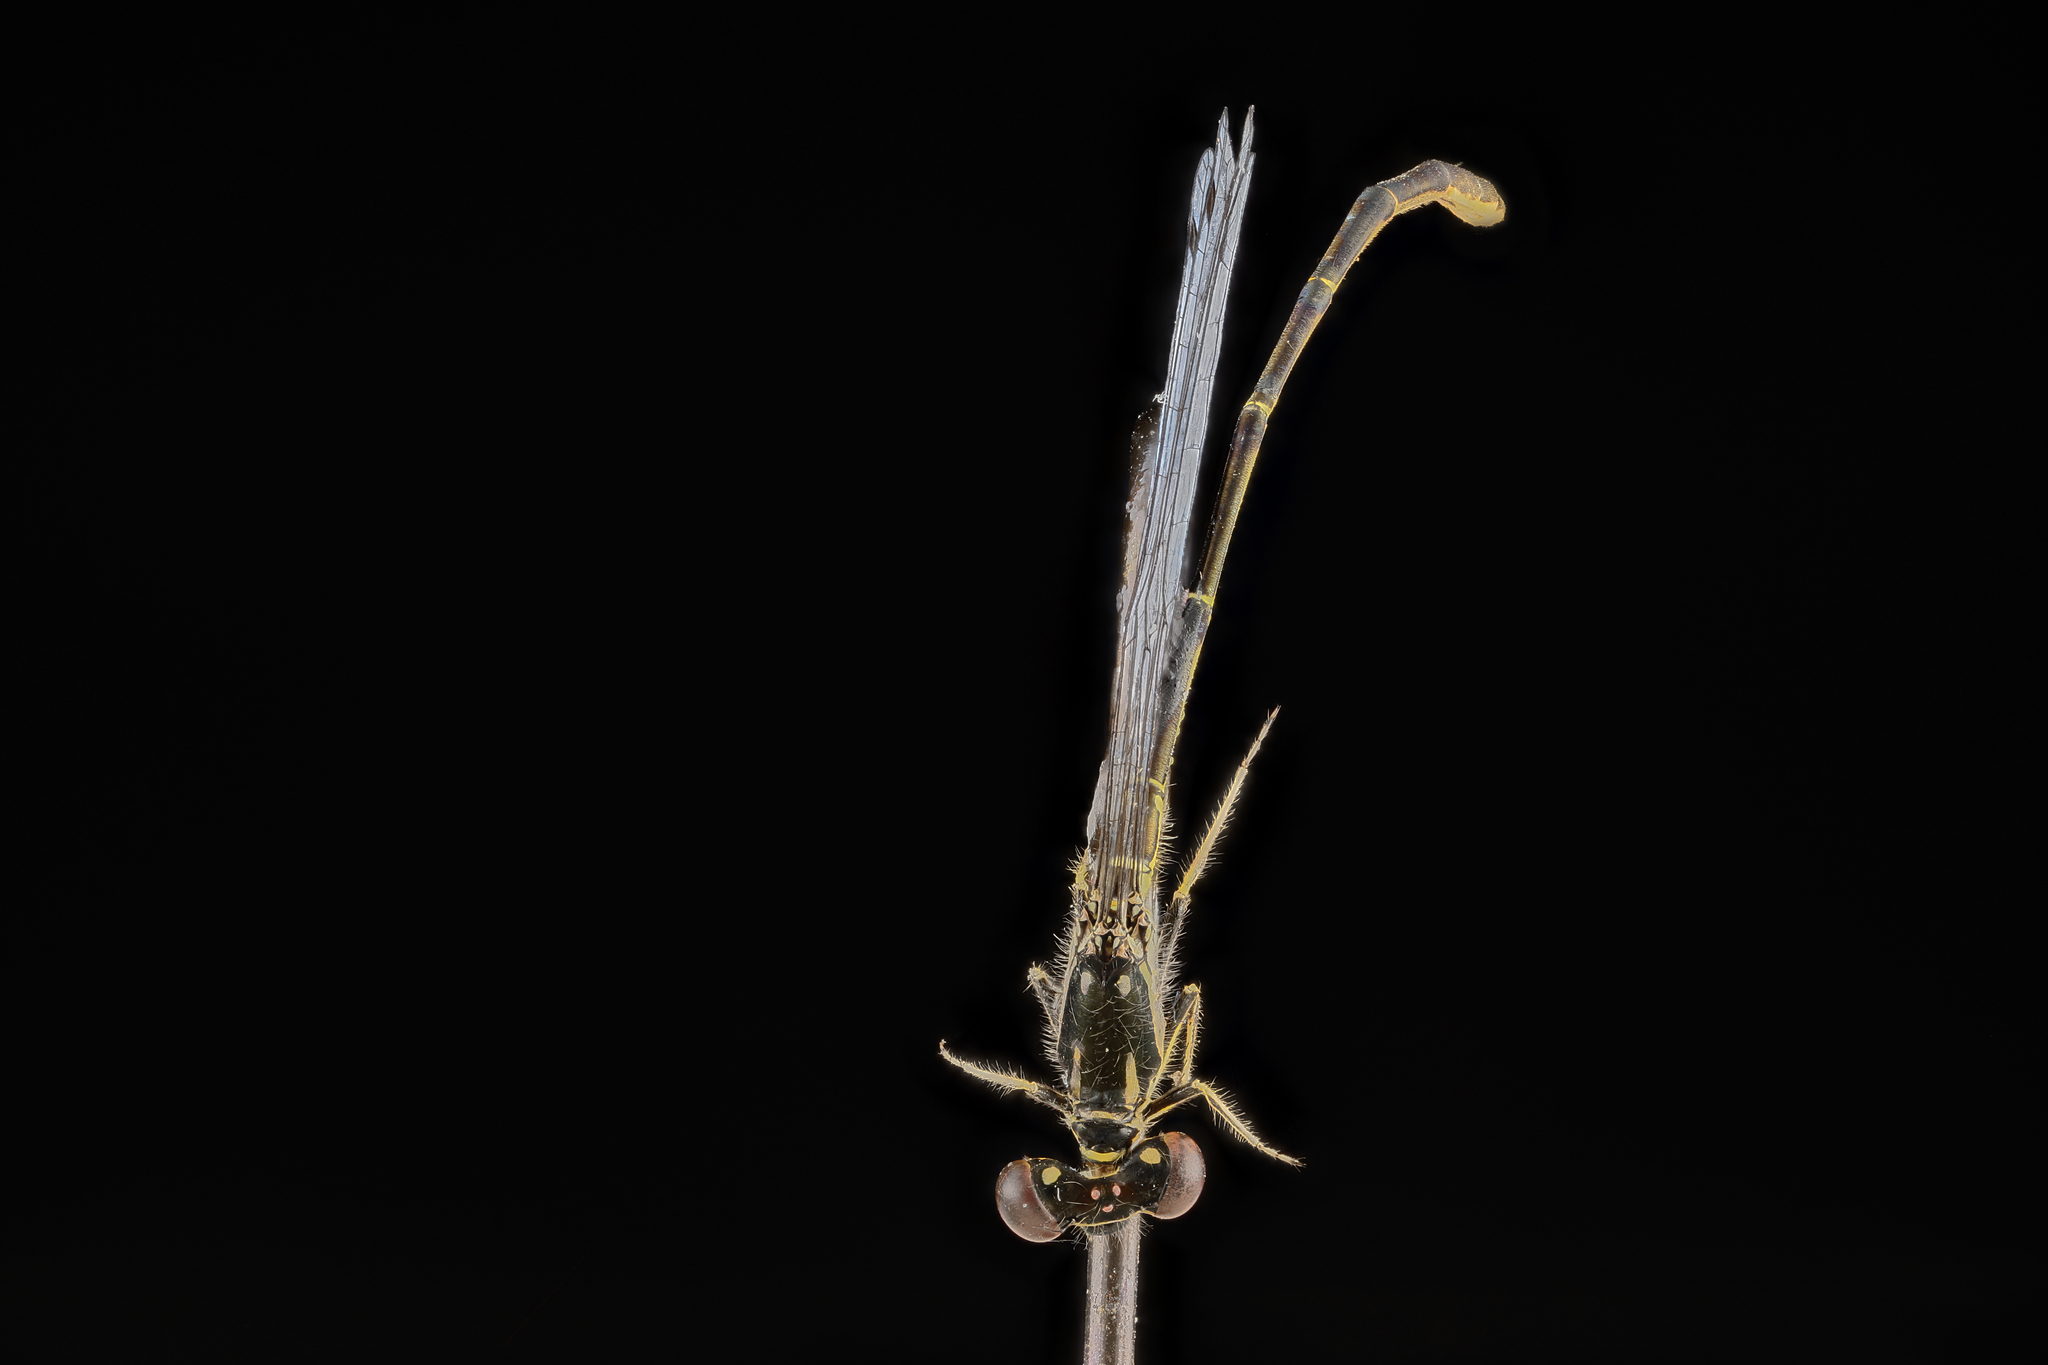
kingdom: Animalia
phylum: Arthropoda
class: Insecta
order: Odonata
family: Coenagrionidae
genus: Ischnura
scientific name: Ischnura posita
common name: Fragile forktail
